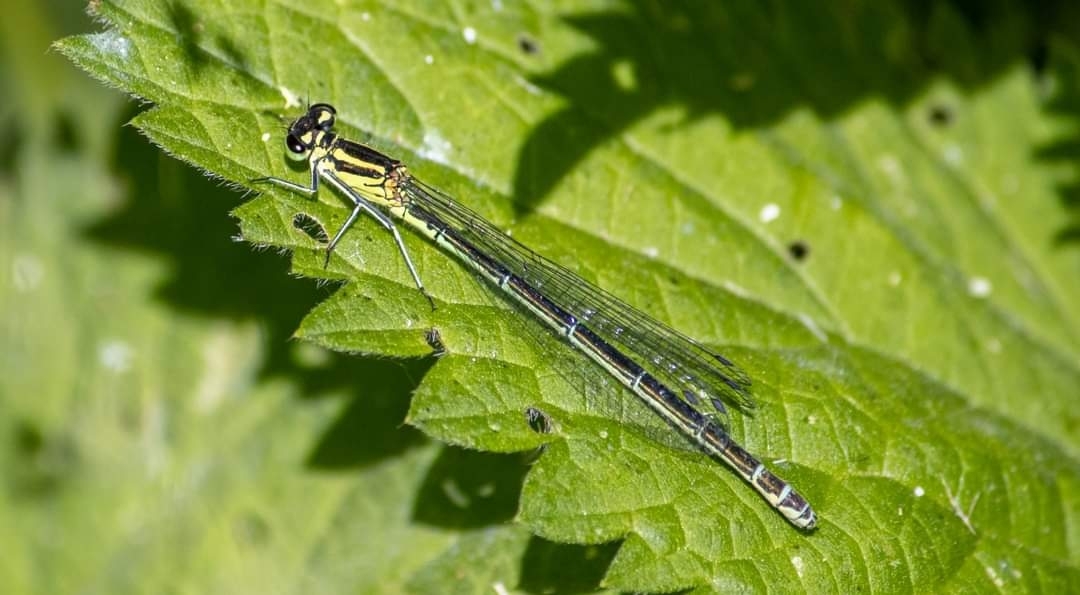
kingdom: Animalia
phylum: Arthropoda
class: Insecta
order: Odonata
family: Coenagrionidae
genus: Coenagrion
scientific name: Coenagrion puella
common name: Azure damselfly
